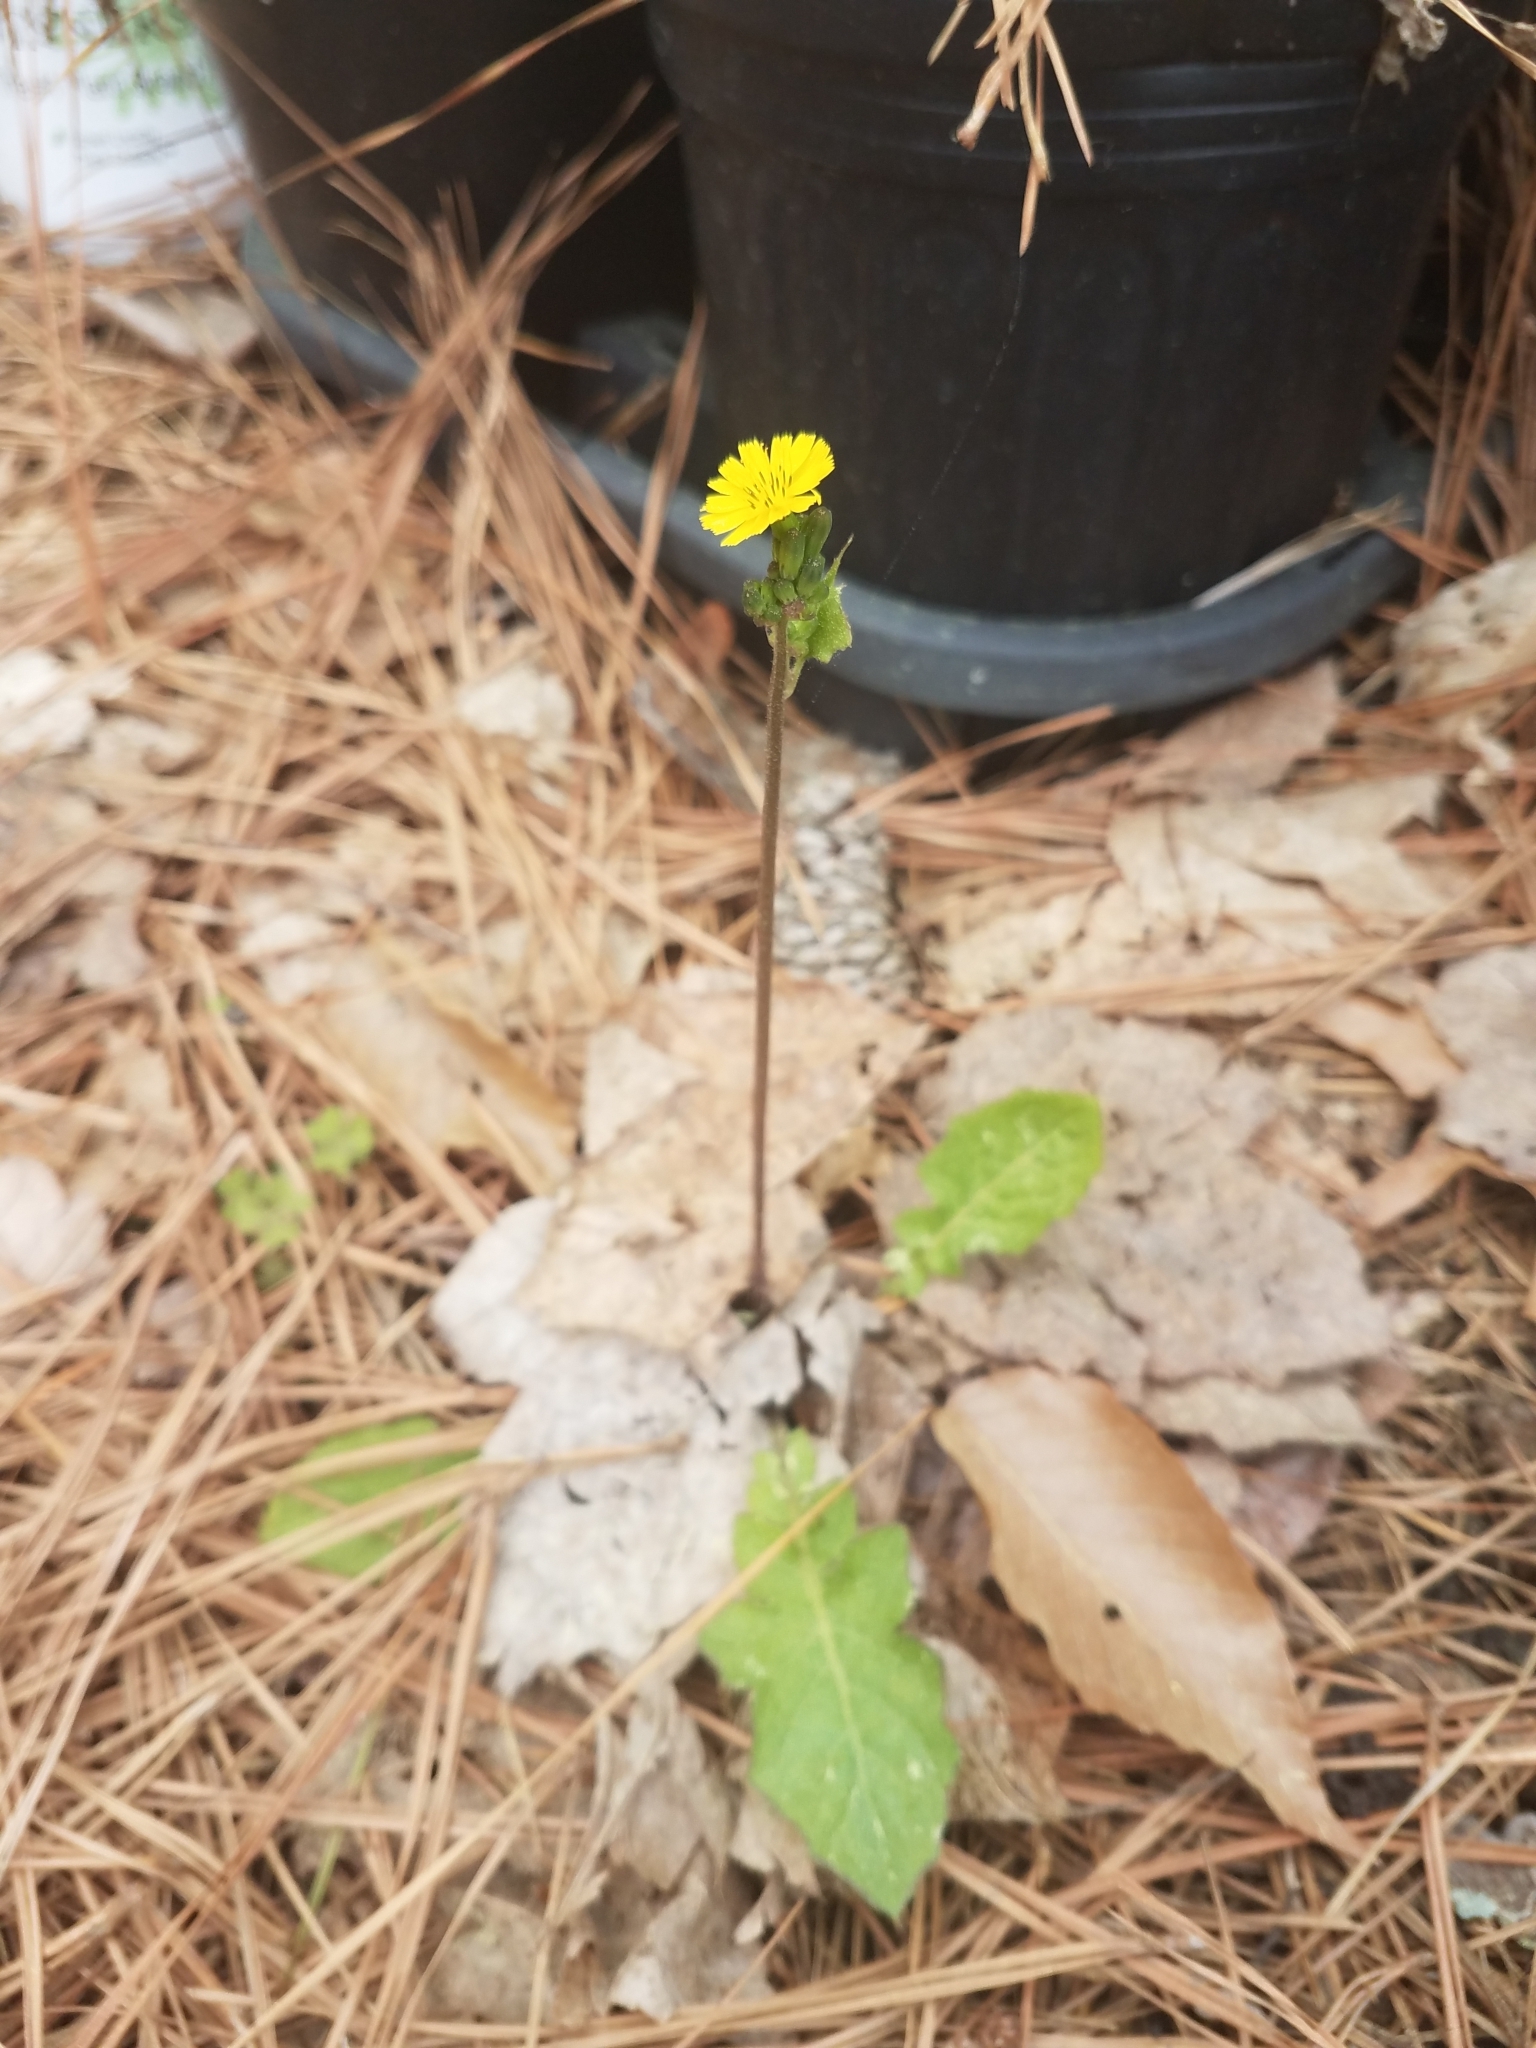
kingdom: Plantae
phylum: Tracheophyta
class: Magnoliopsida
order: Asterales
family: Asteraceae
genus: Youngia
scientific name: Youngia japonica
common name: Oriental false hawksbeard
